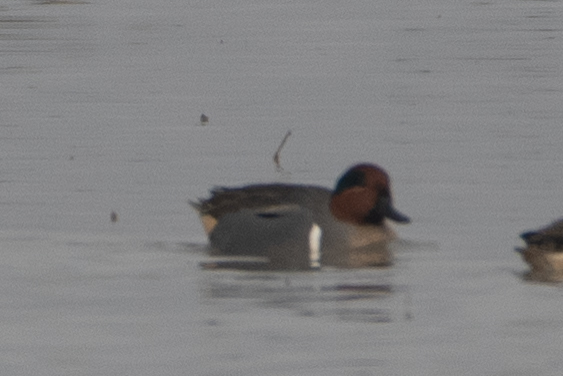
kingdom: Animalia
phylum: Chordata
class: Aves
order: Anseriformes
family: Anatidae
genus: Anas
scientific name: Anas crecca
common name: Eurasian teal
